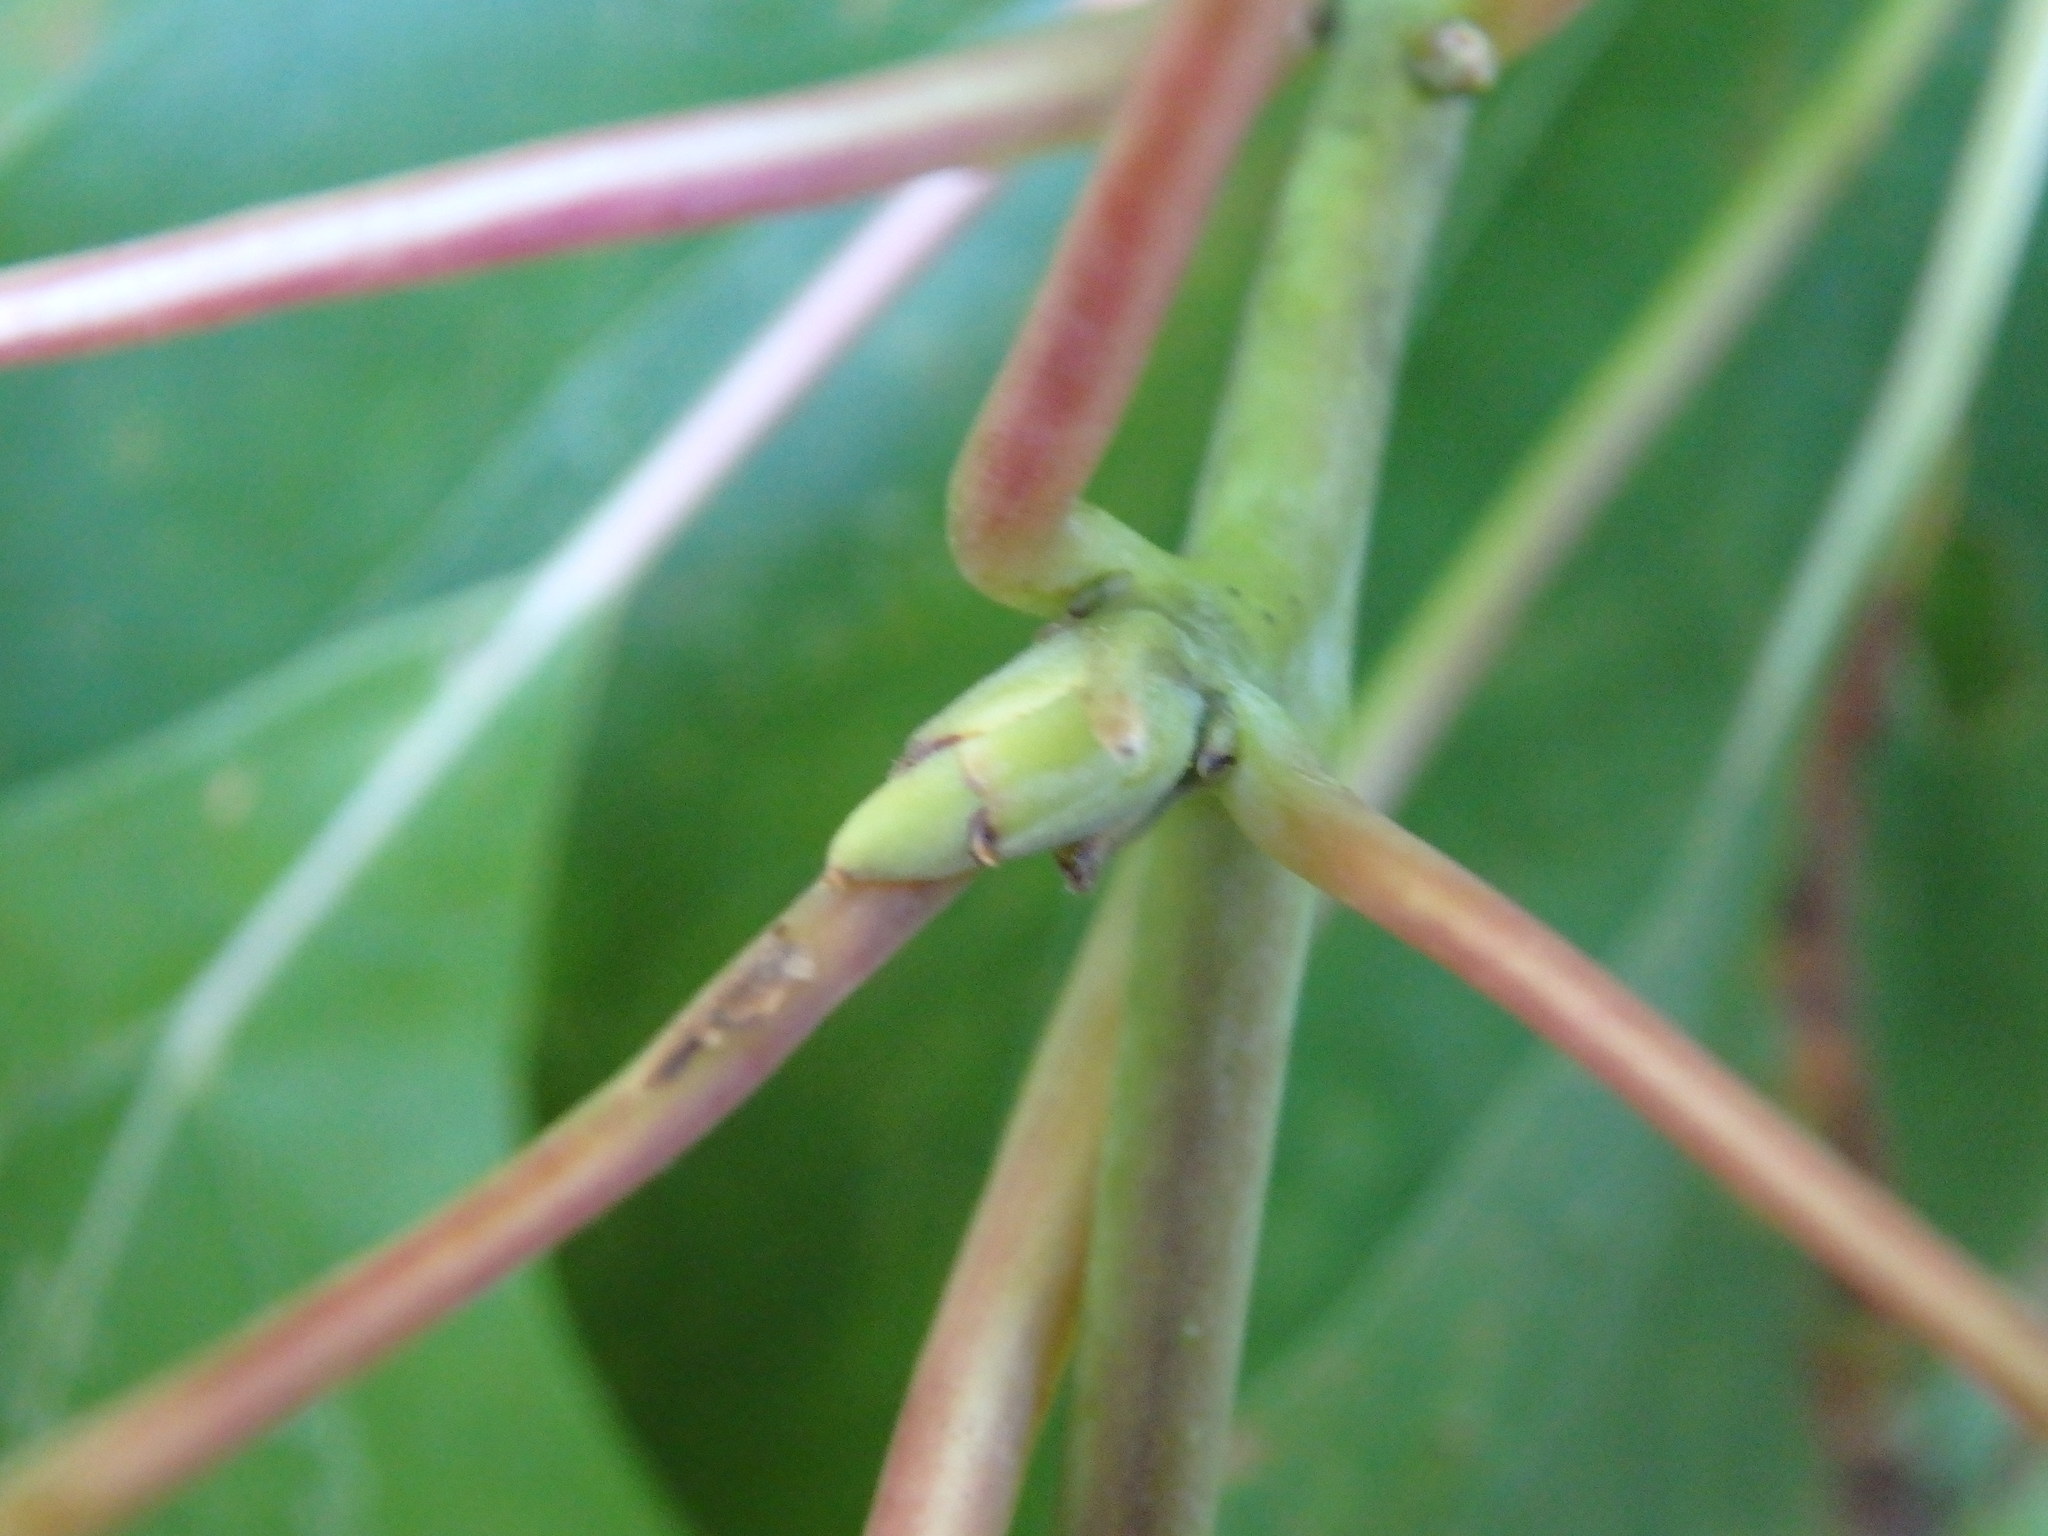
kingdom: Plantae
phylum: Tracheophyta
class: Magnoliopsida
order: Laurales
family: Lauraceae
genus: Sassafras
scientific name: Sassafras albidum
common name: Sassafras
